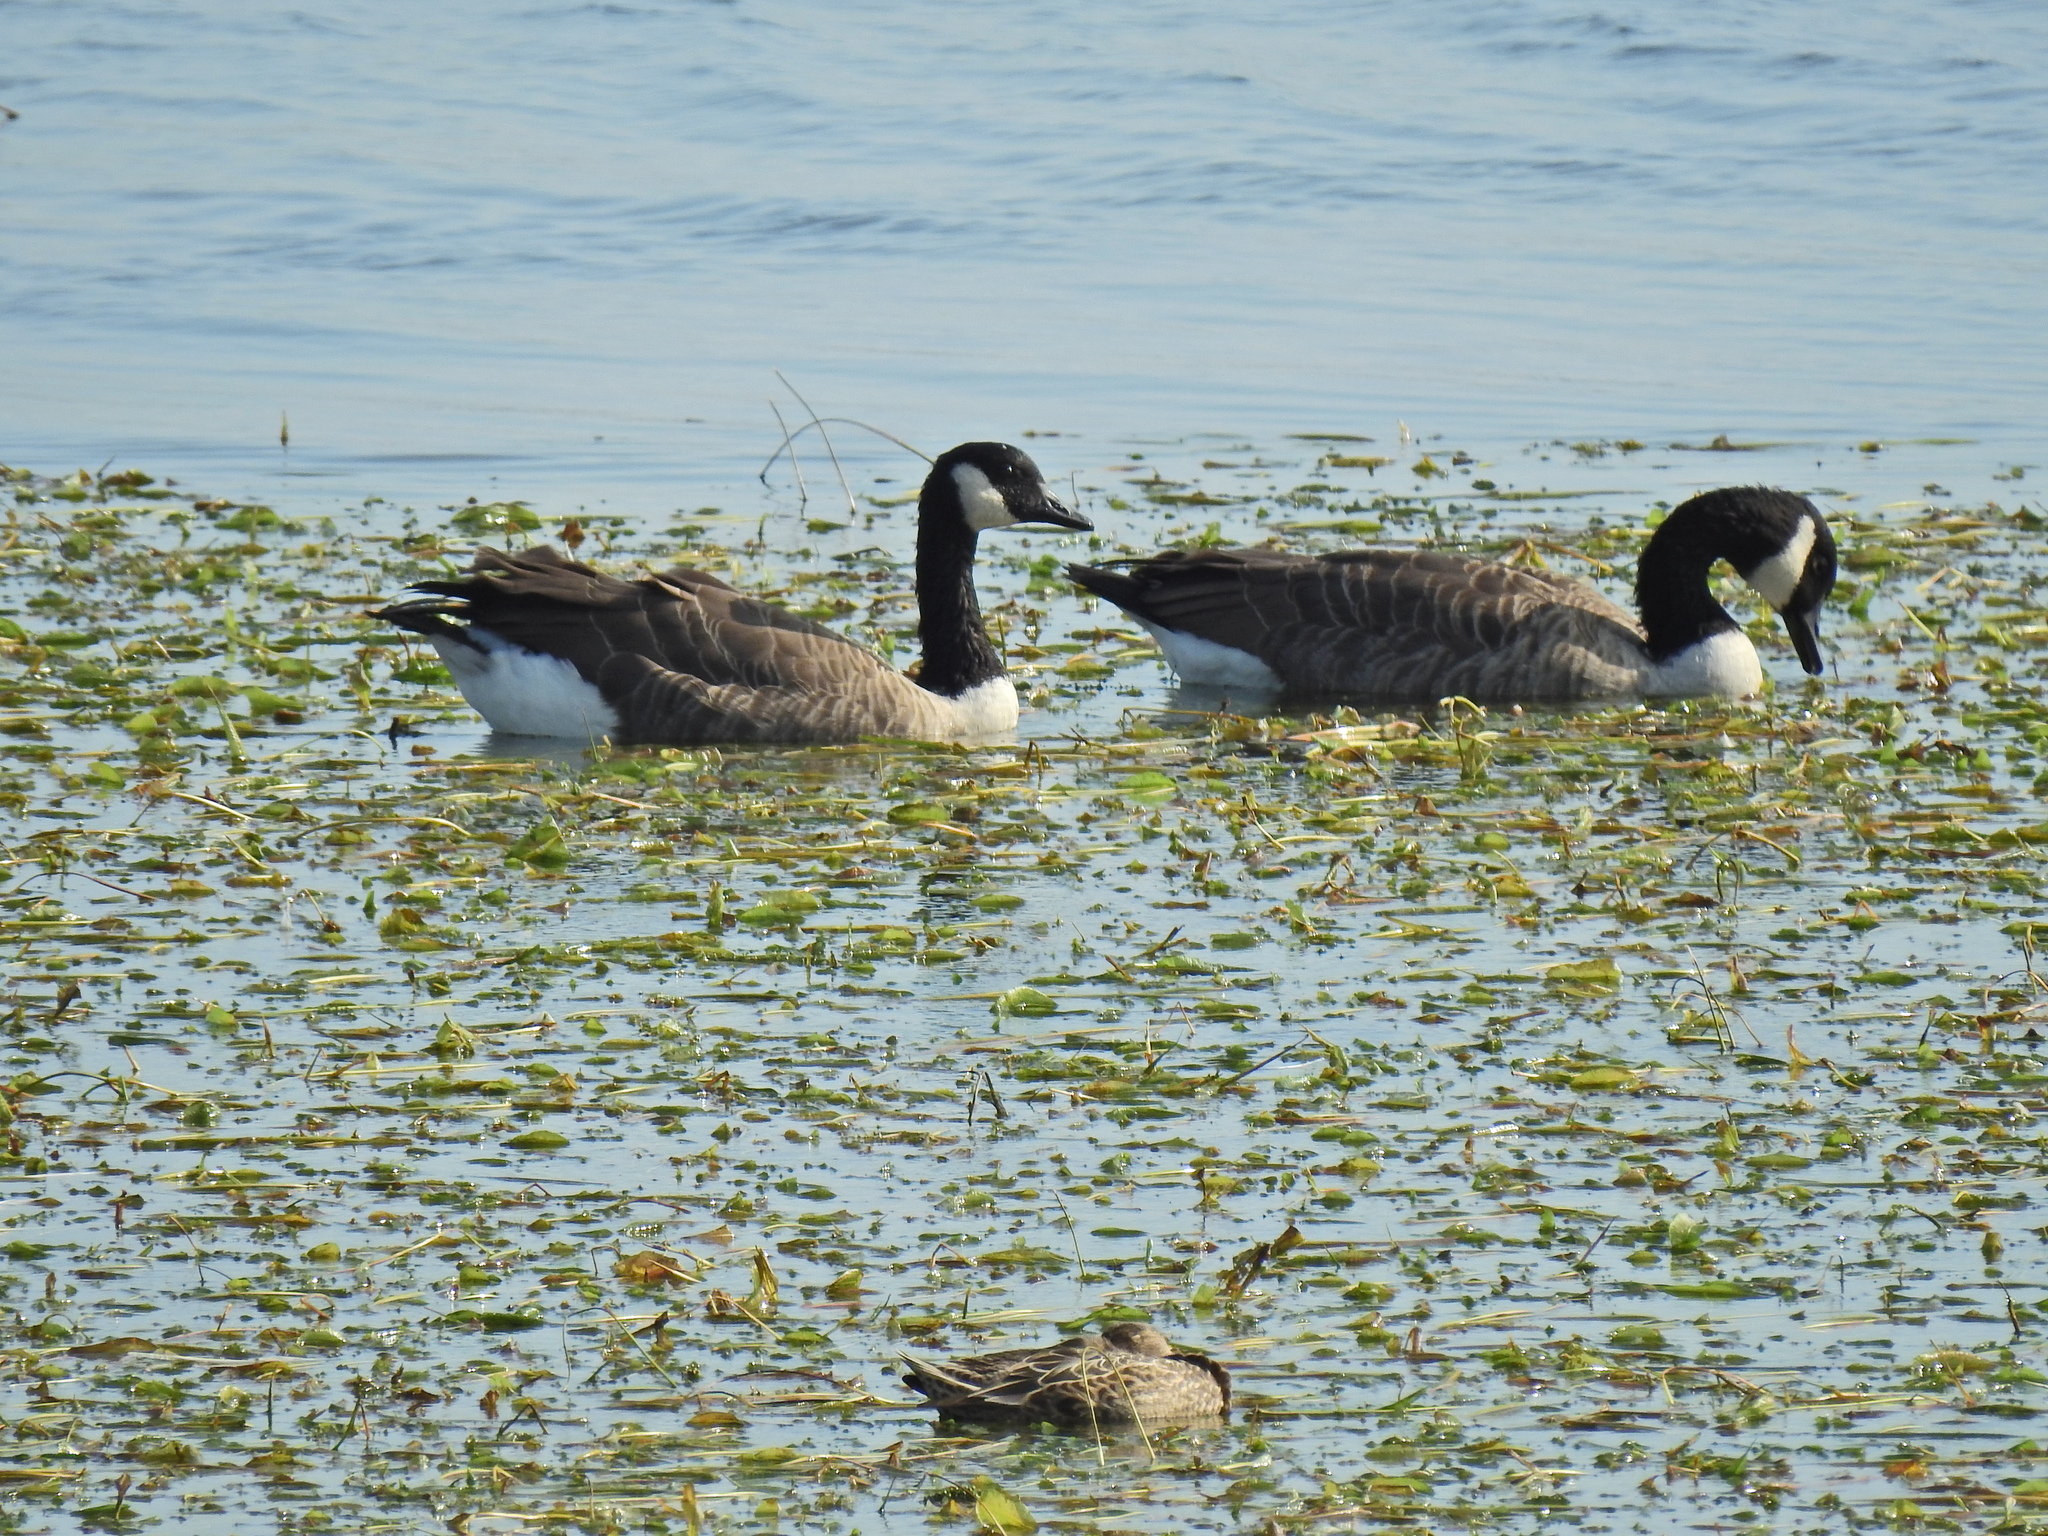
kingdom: Animalia
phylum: Chordata
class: Aves
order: Anseriformes
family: Anatidae
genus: Branta
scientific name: Branta canadensis
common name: Canada goose
